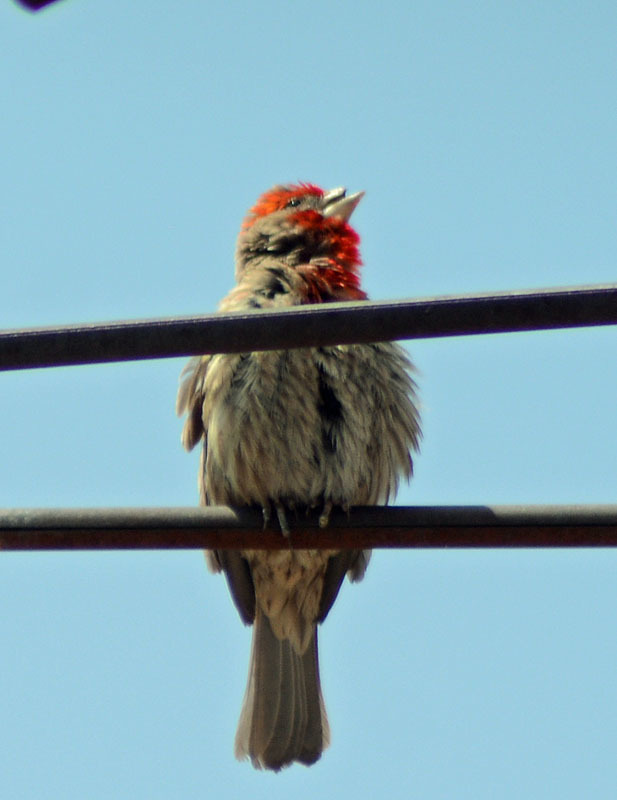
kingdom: Animalia
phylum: Chordata
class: Aves
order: Passeriformes
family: Fringillidae
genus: Haemorhous
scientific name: Haemorhous mexicanus
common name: House finch
